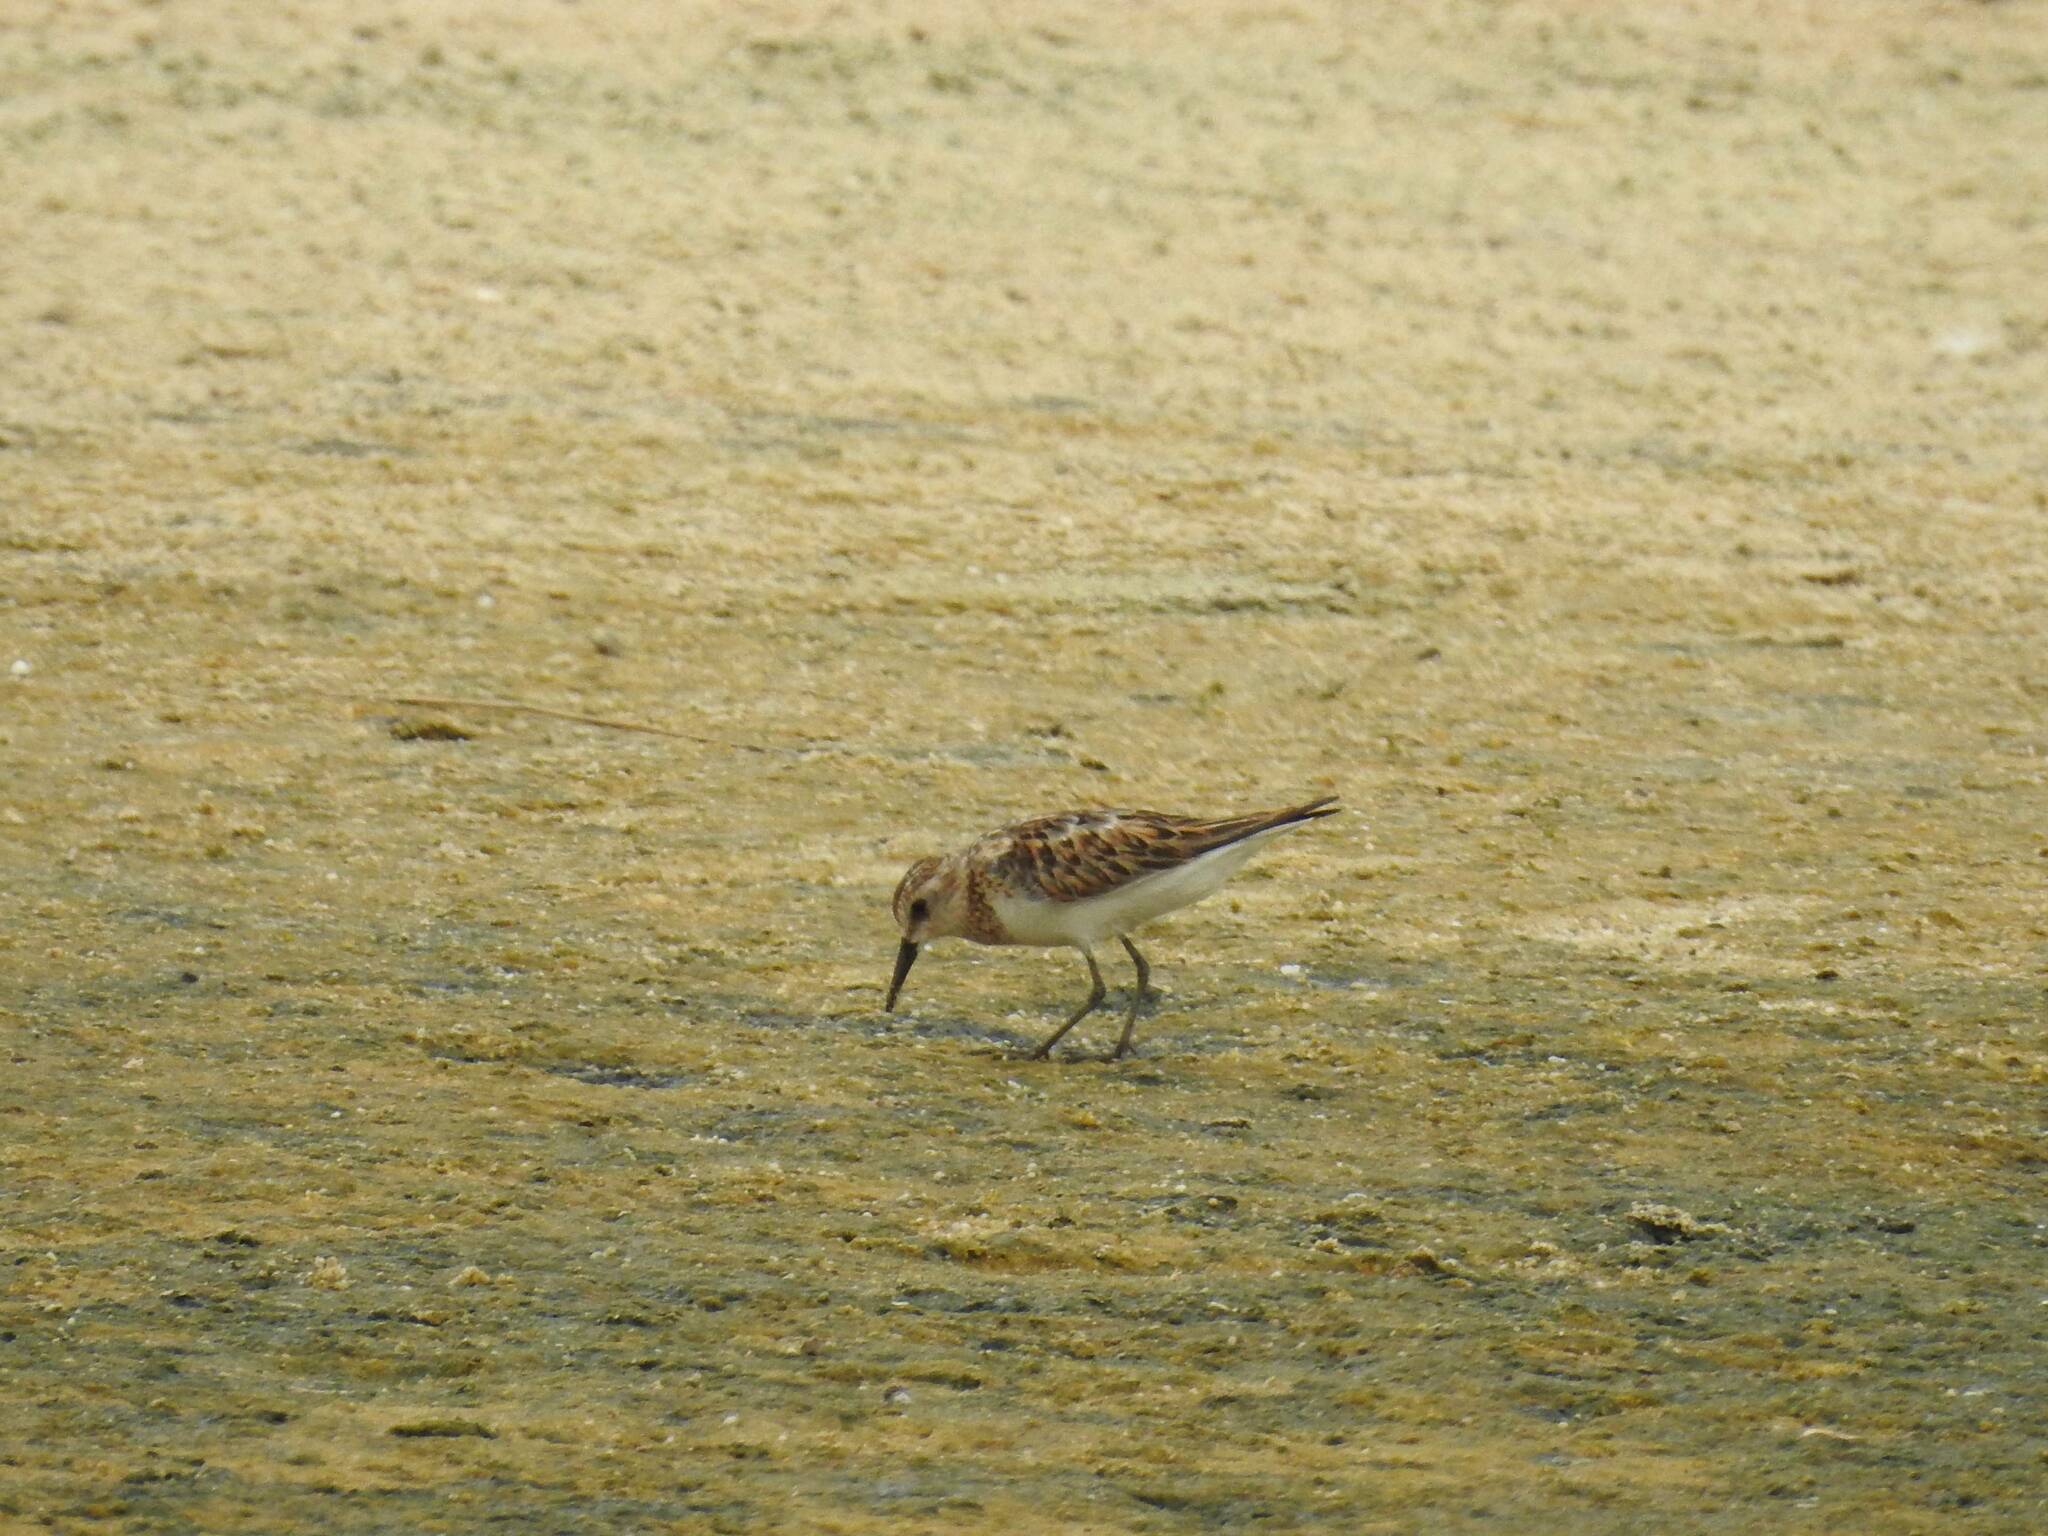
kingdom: Animalia
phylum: Chordata
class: Aves
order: Charadriiformes
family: Scolopacidae
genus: Calidris
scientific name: Calidris minuta
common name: Little stint
